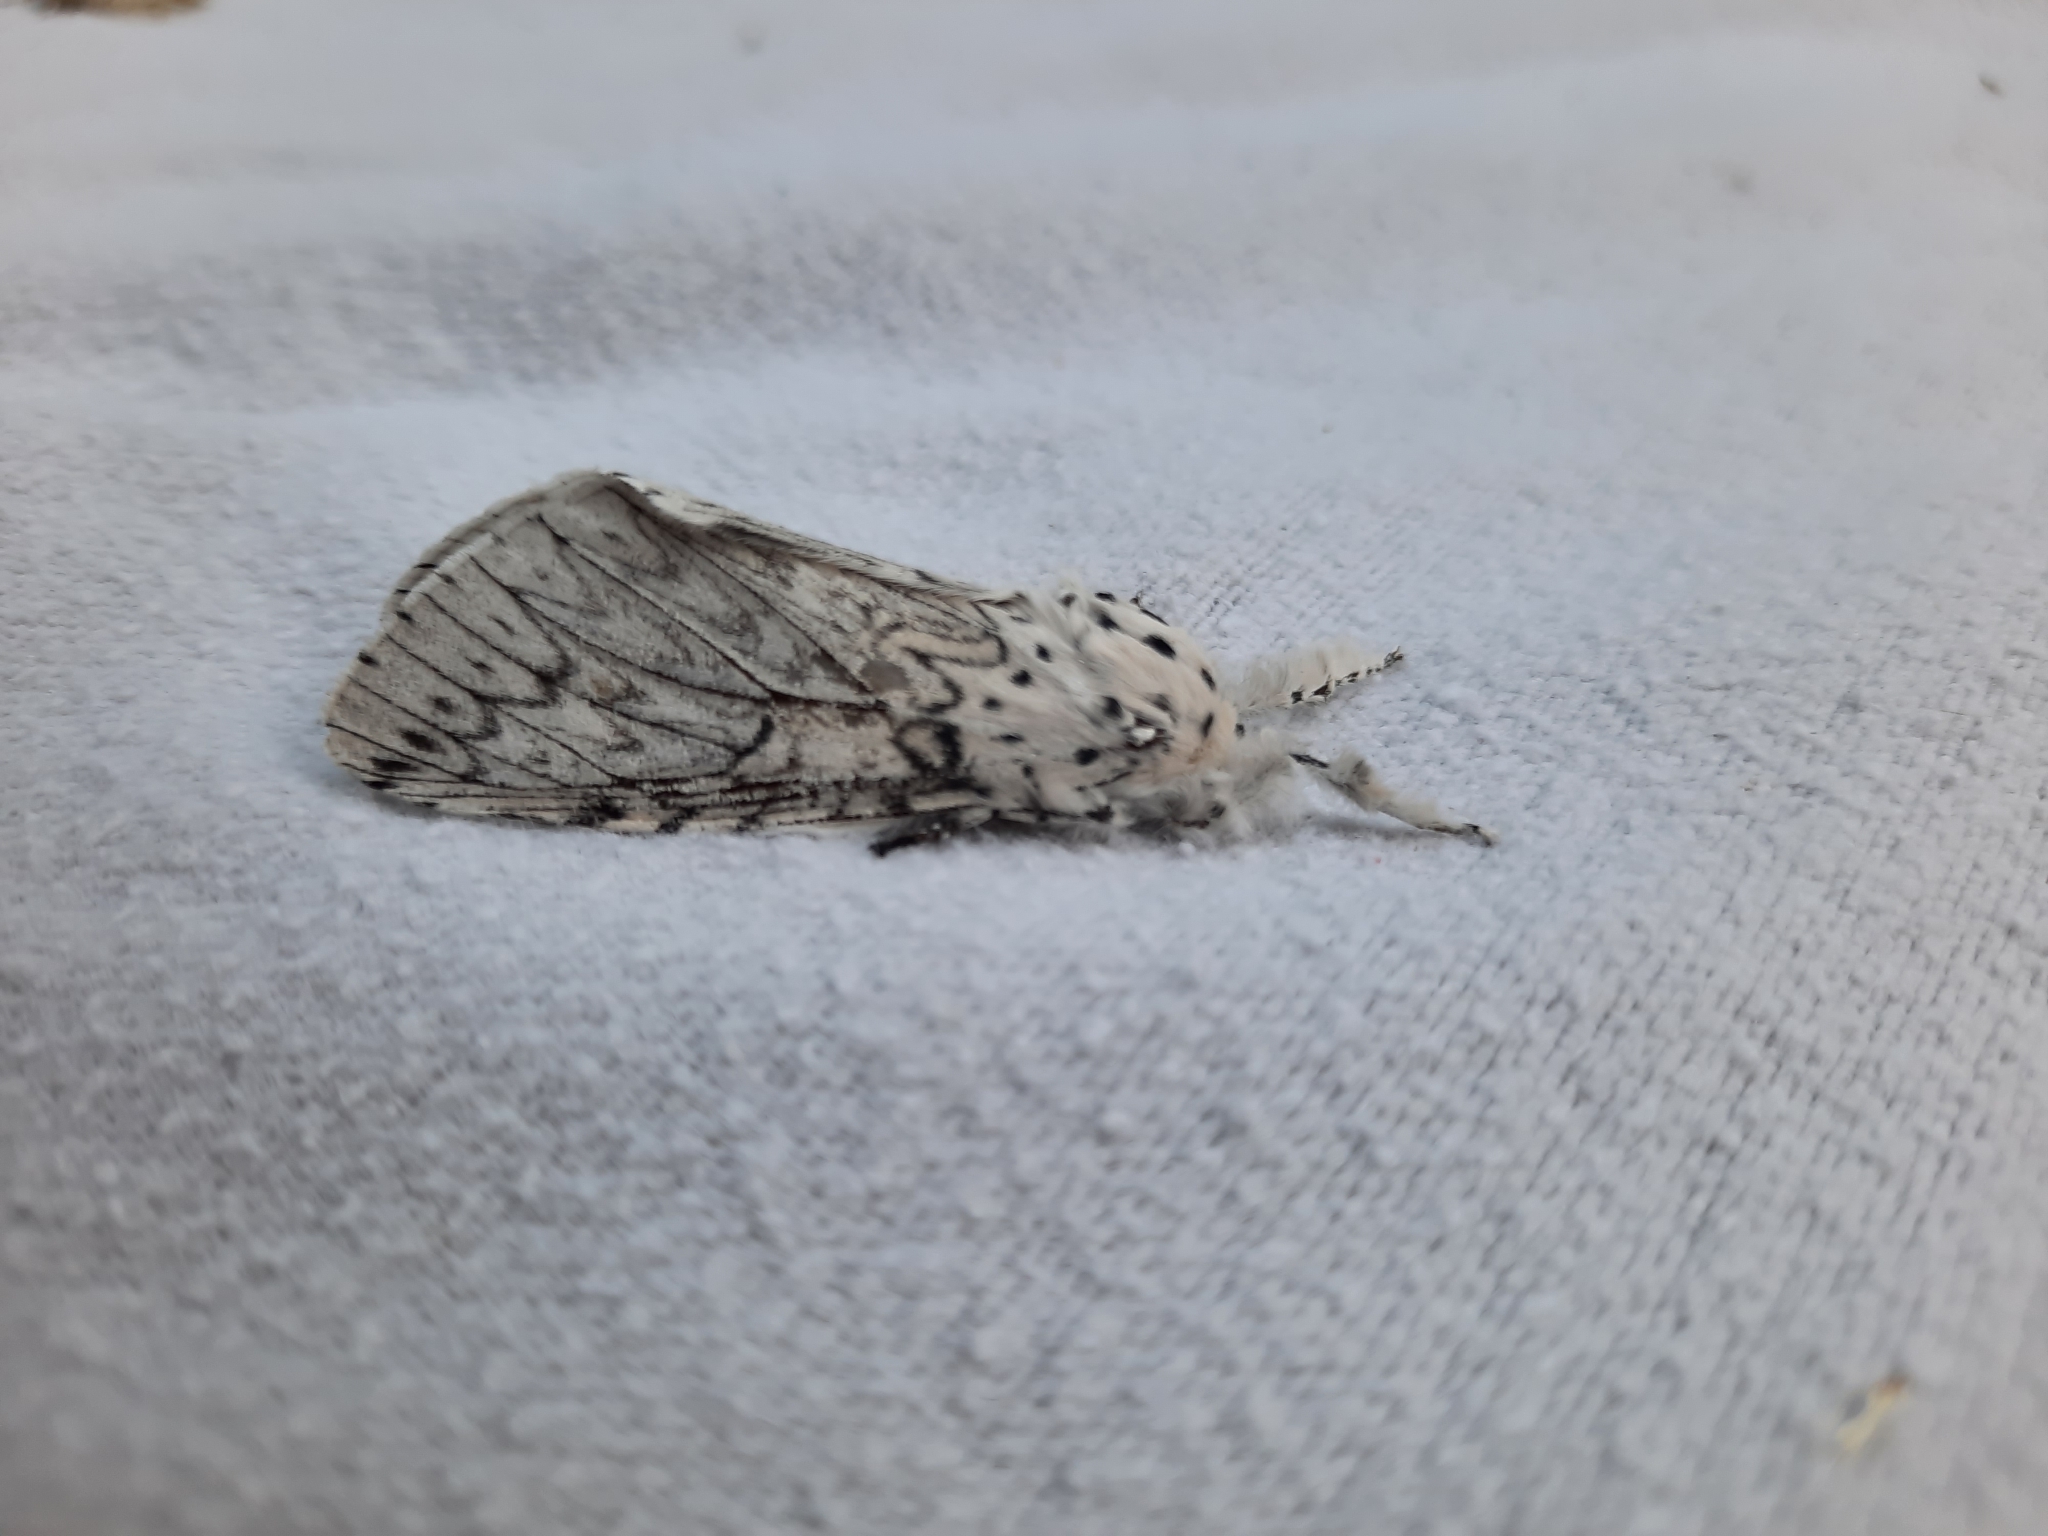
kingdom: Animalia
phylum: Arthropoda
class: Insecta
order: Lepidoptera
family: Notodontidae
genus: Cerura
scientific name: Cerura erminea
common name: Lesser puss moth
